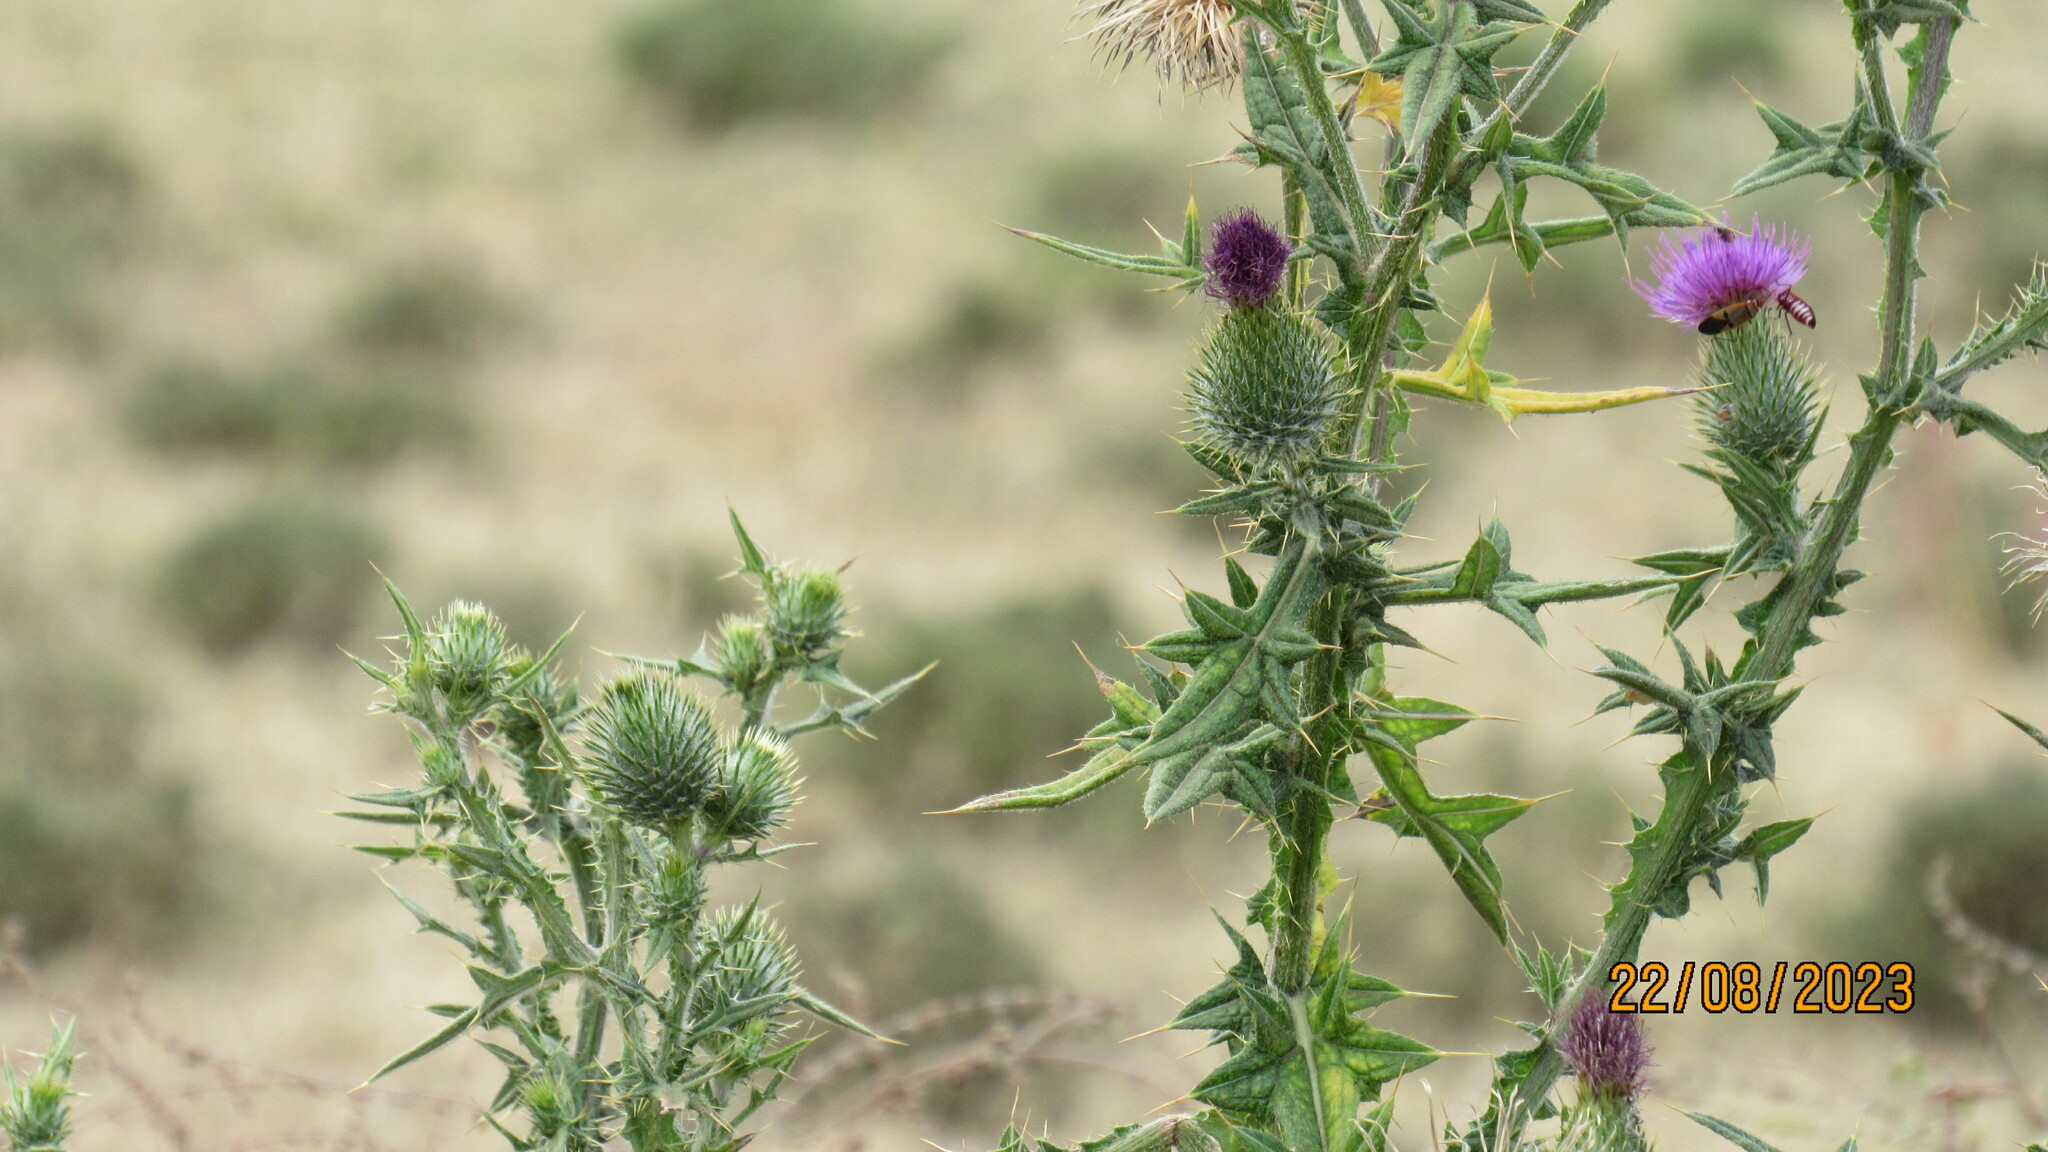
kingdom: Plantae
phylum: Tracheophyta
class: Magnoliopsida
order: Asterales
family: Asteraceae
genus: Cirsium
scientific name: Cirsium vulgare
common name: Bull thistle
